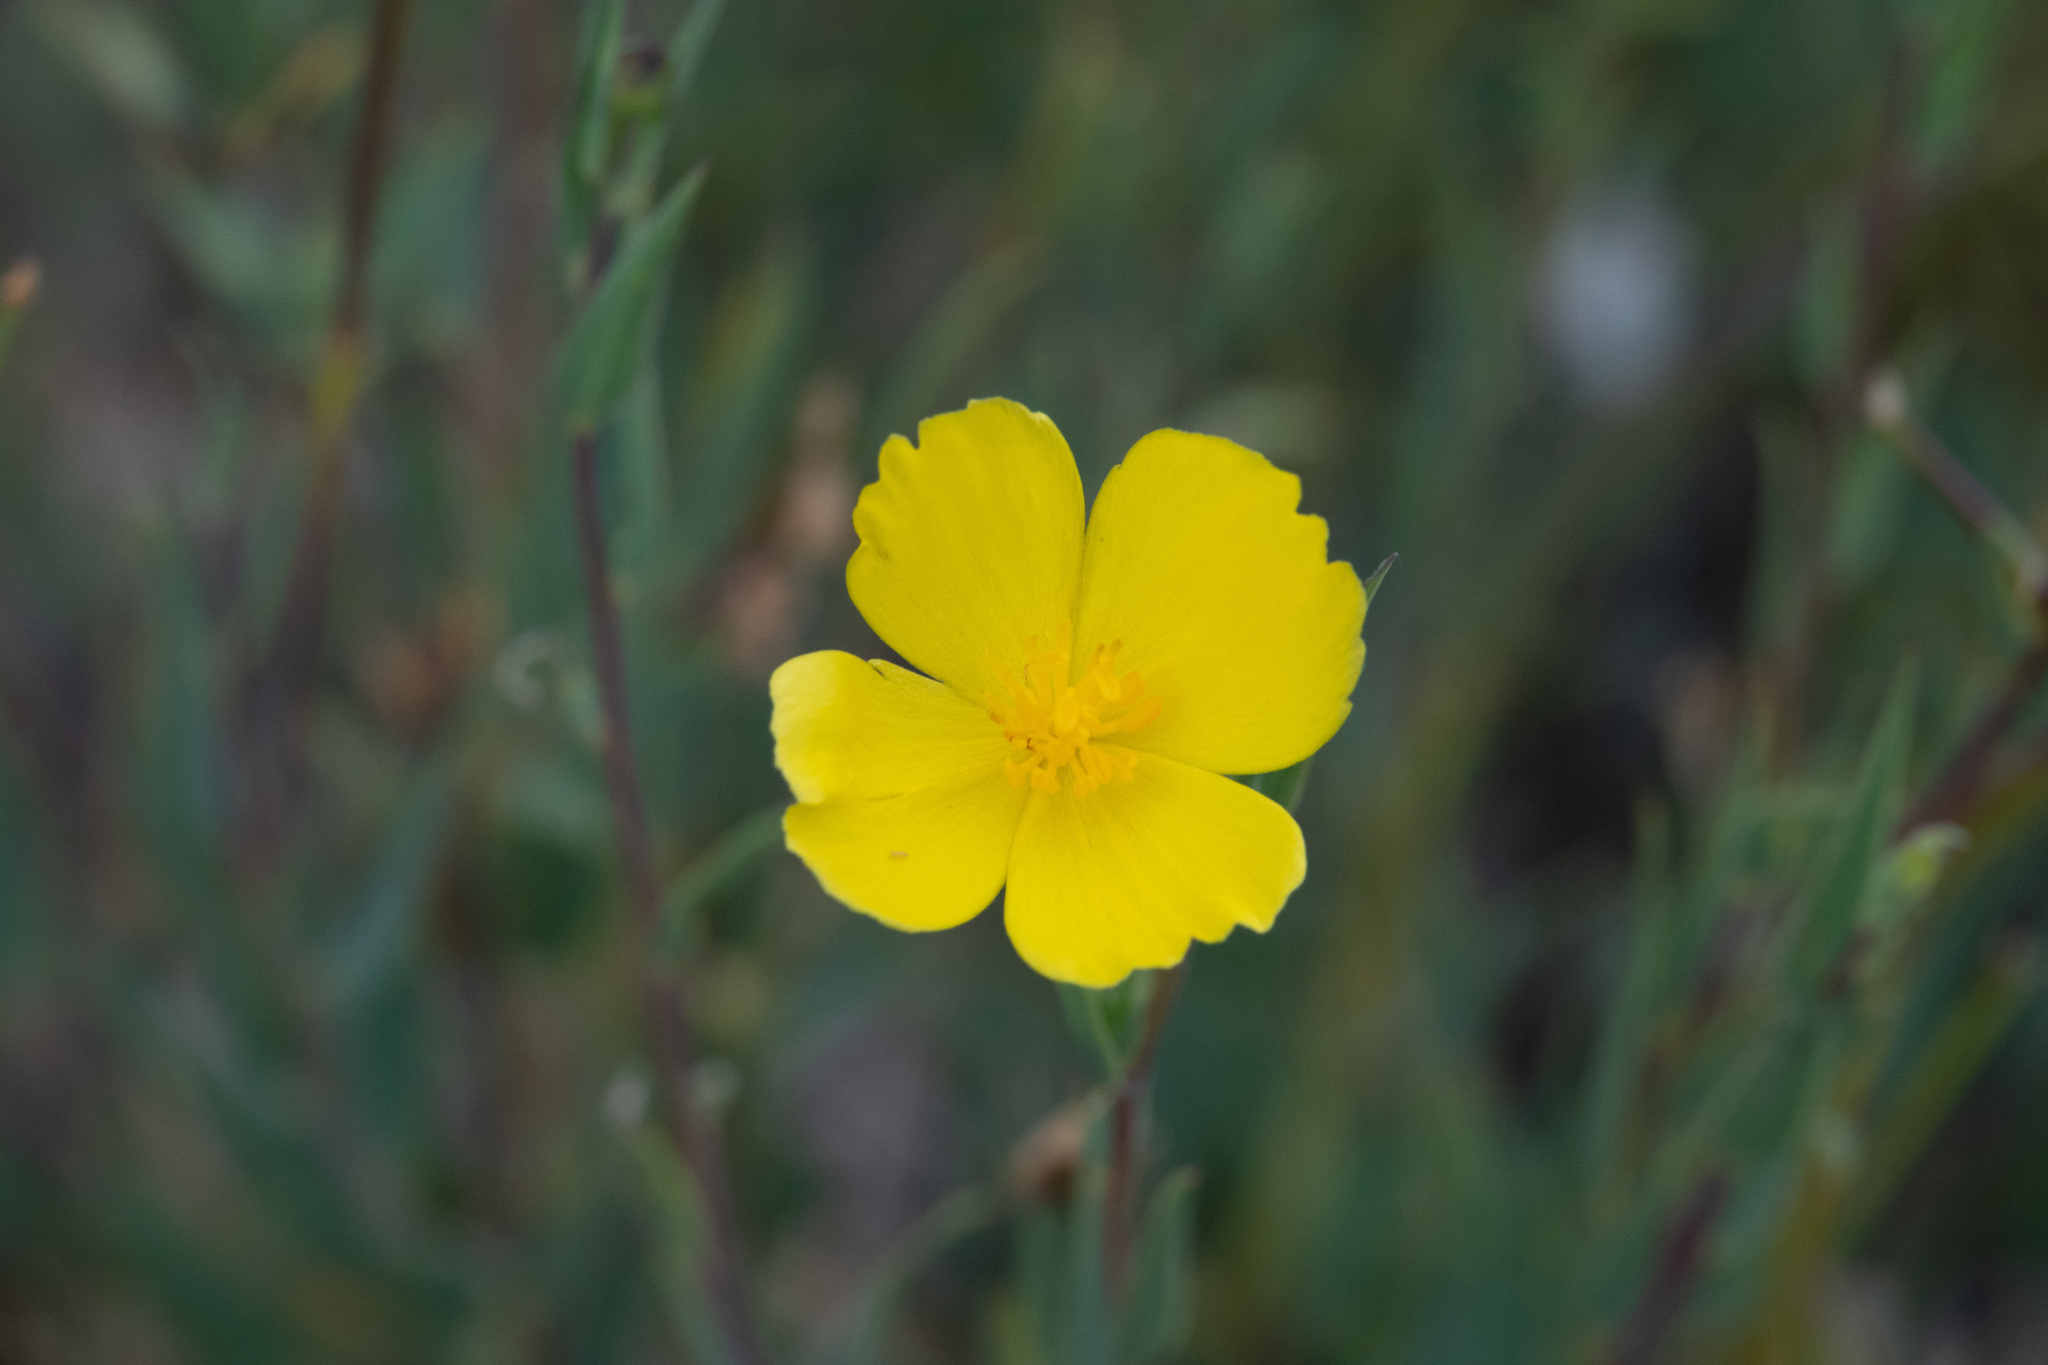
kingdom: Plantae
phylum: Tracheophyta
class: Magnoliopsida
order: Ranunculales
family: Papaveraceae
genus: Dendromecon
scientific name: Dendromecon rigida
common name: Tree poppy
